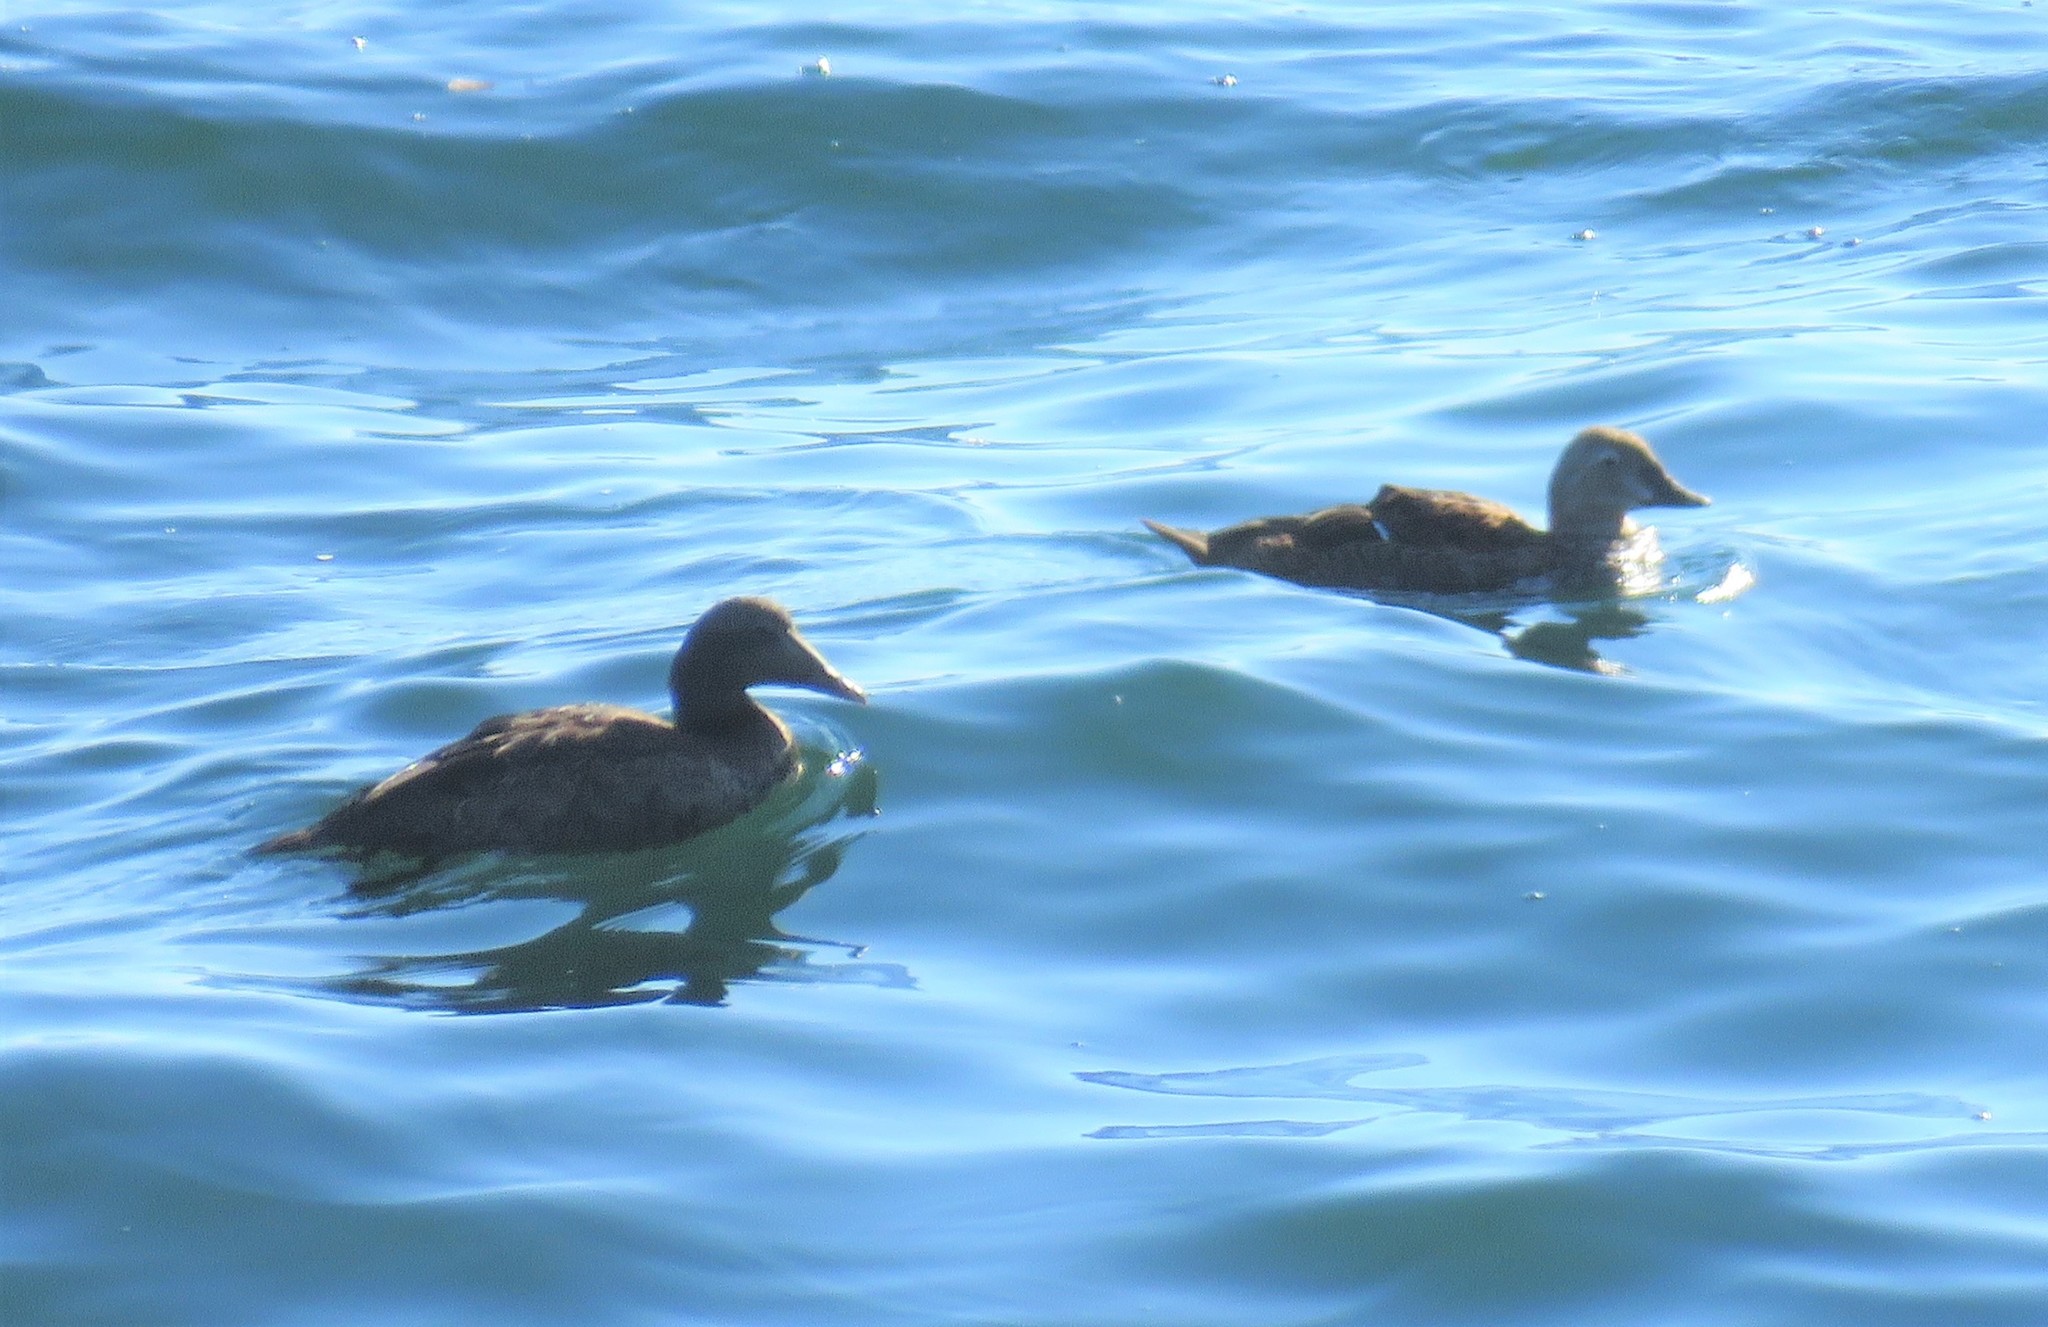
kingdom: Animalia
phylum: Chordata
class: Aves
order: Anseriformes
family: Anatidae
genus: Somateria
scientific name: Somateria mollissima
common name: Common eider
